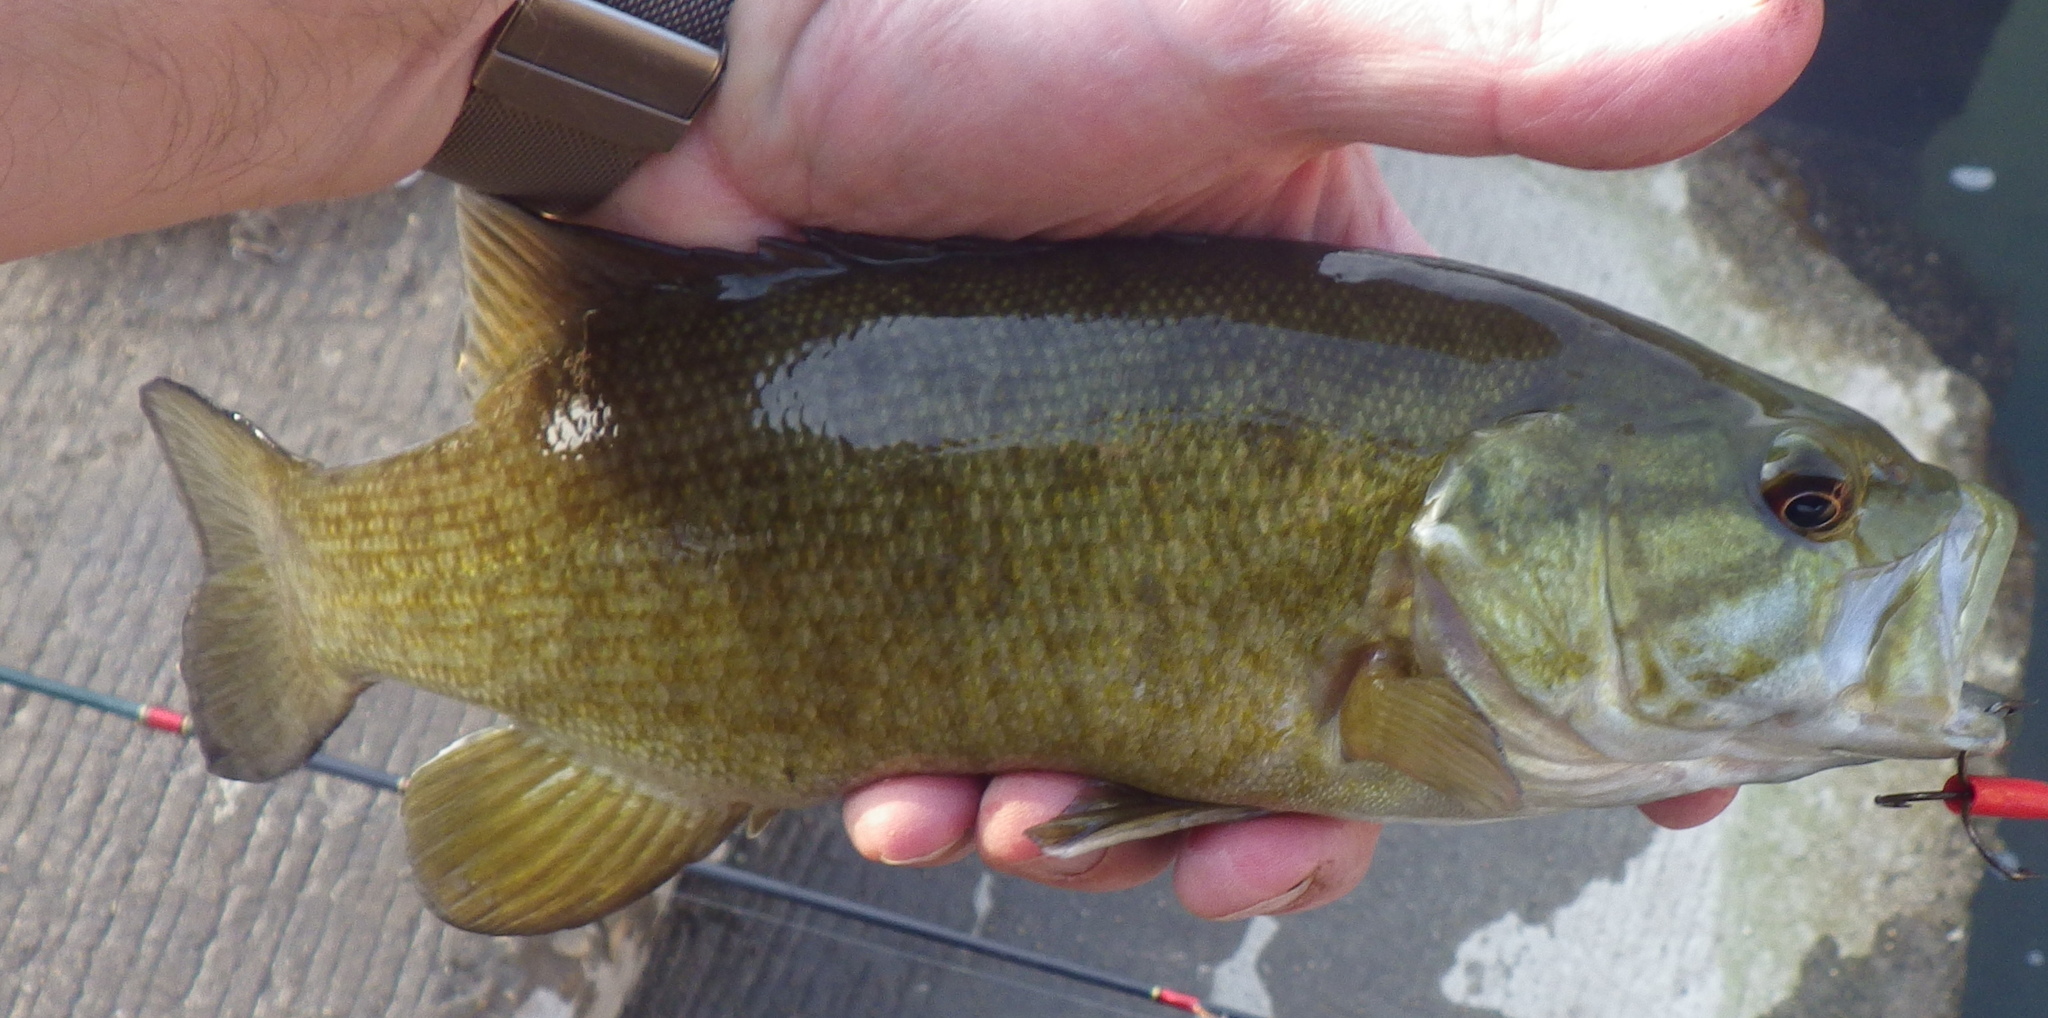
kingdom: Animalia
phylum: Chordata
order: Perciformes
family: Centrarchidae
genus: Micropterus
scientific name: Micropterus dolomieu
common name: Smallmouth bass
